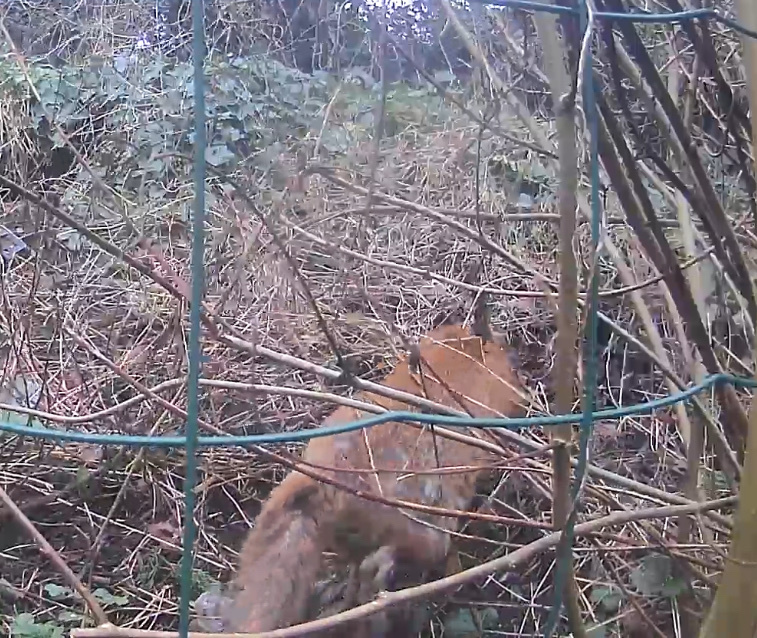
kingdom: Animalia
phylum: Chordata
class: Mammalia
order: Carnivora
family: Canidae
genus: Vulpes
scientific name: Vulpes vulpes
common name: Red fox
